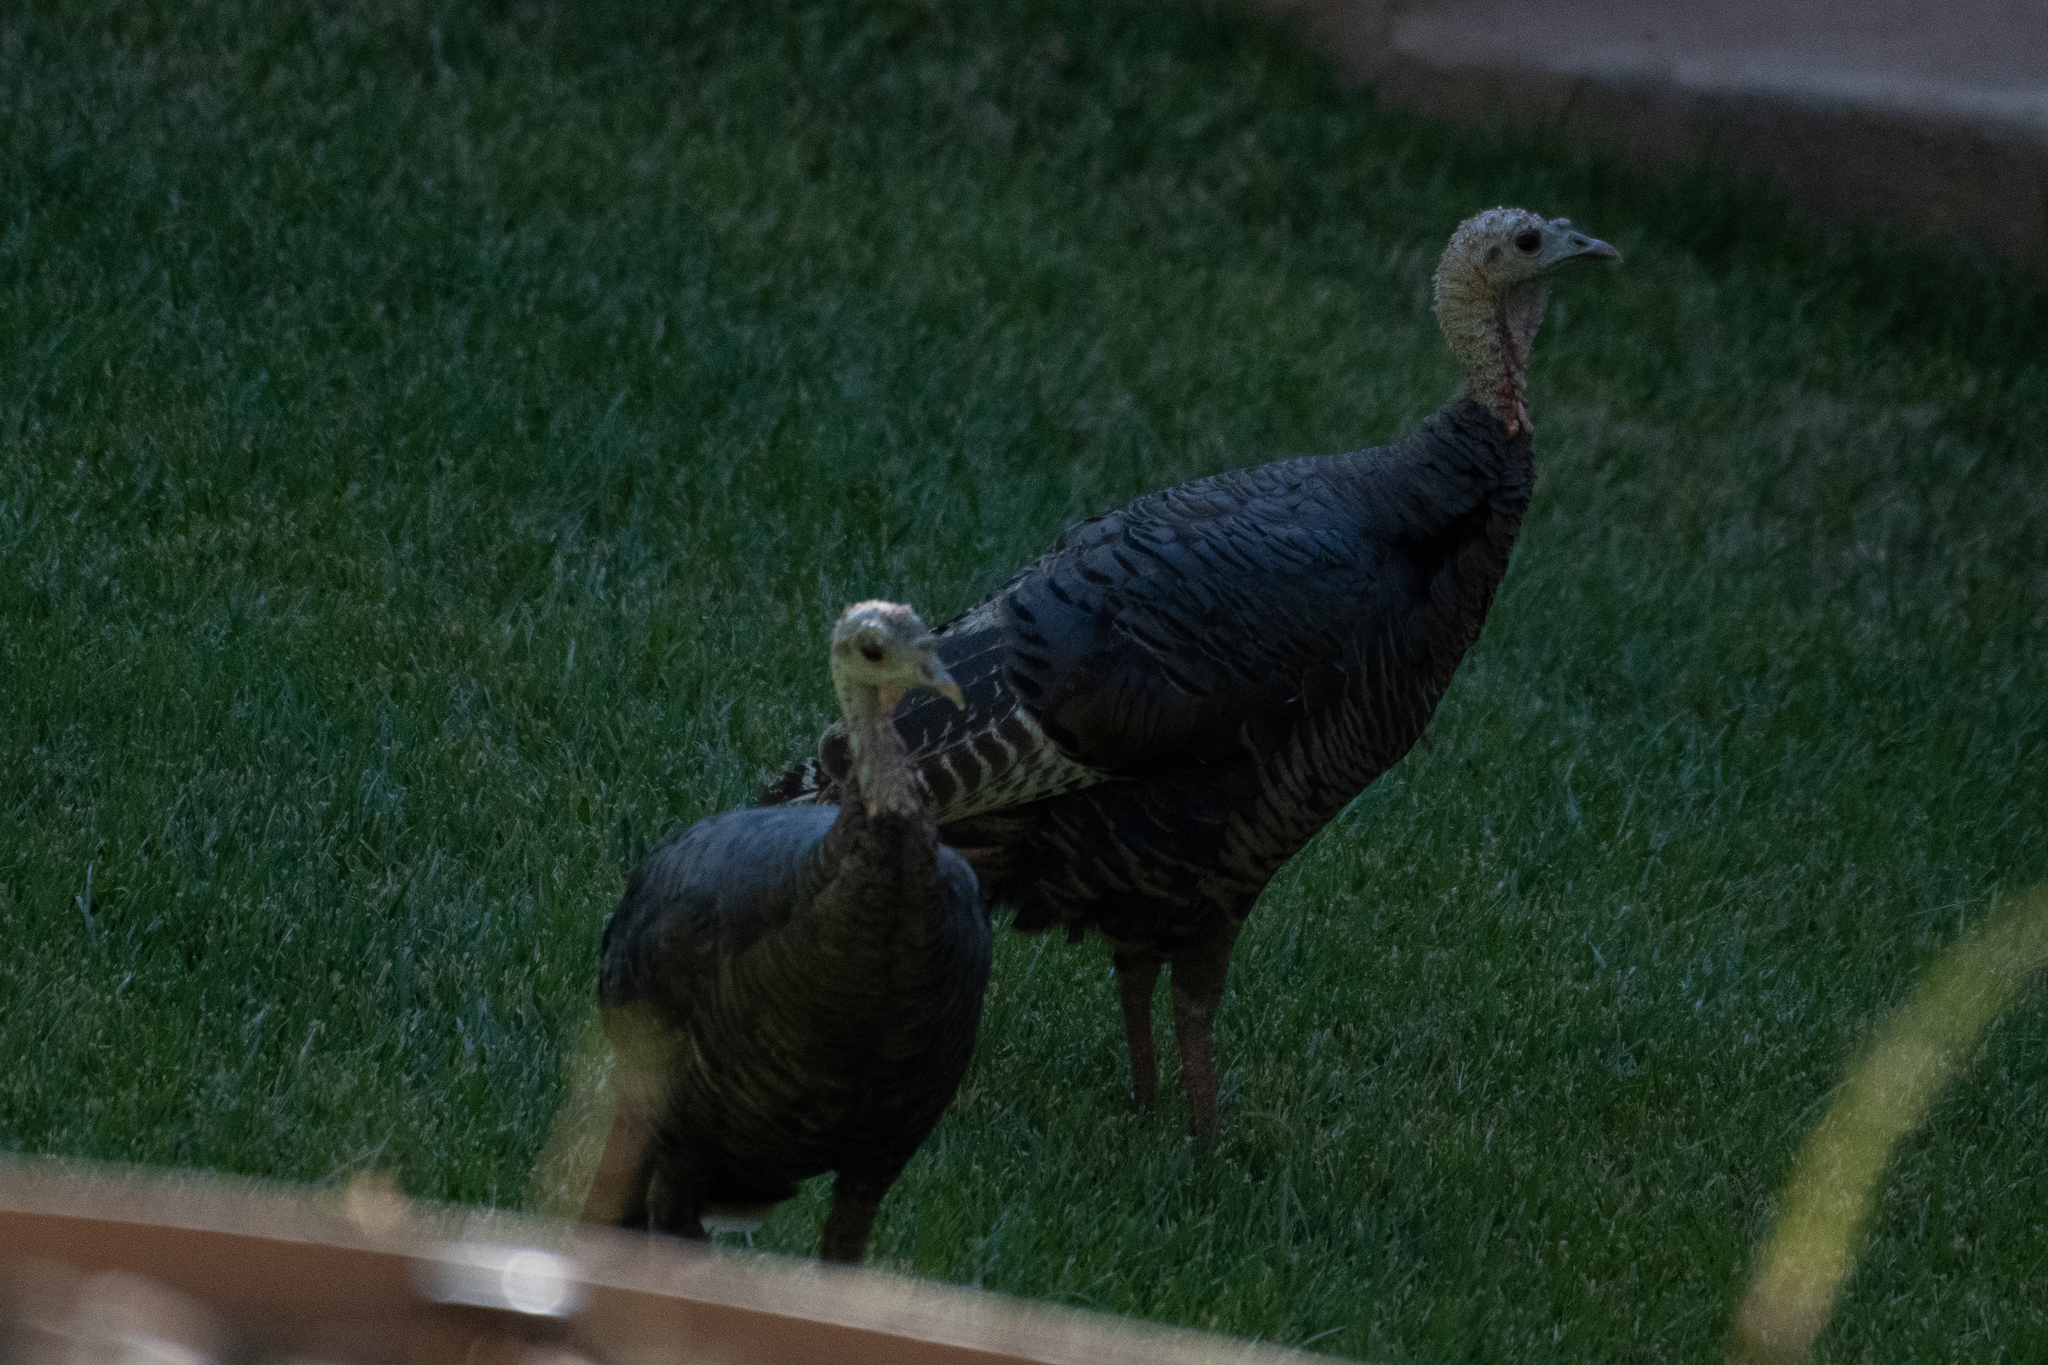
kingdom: Animalia
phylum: Chordata
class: Aves
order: Galliformes
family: Phasianidae
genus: Meleagris
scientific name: Meleagris gallopavo
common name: Wild turkey
